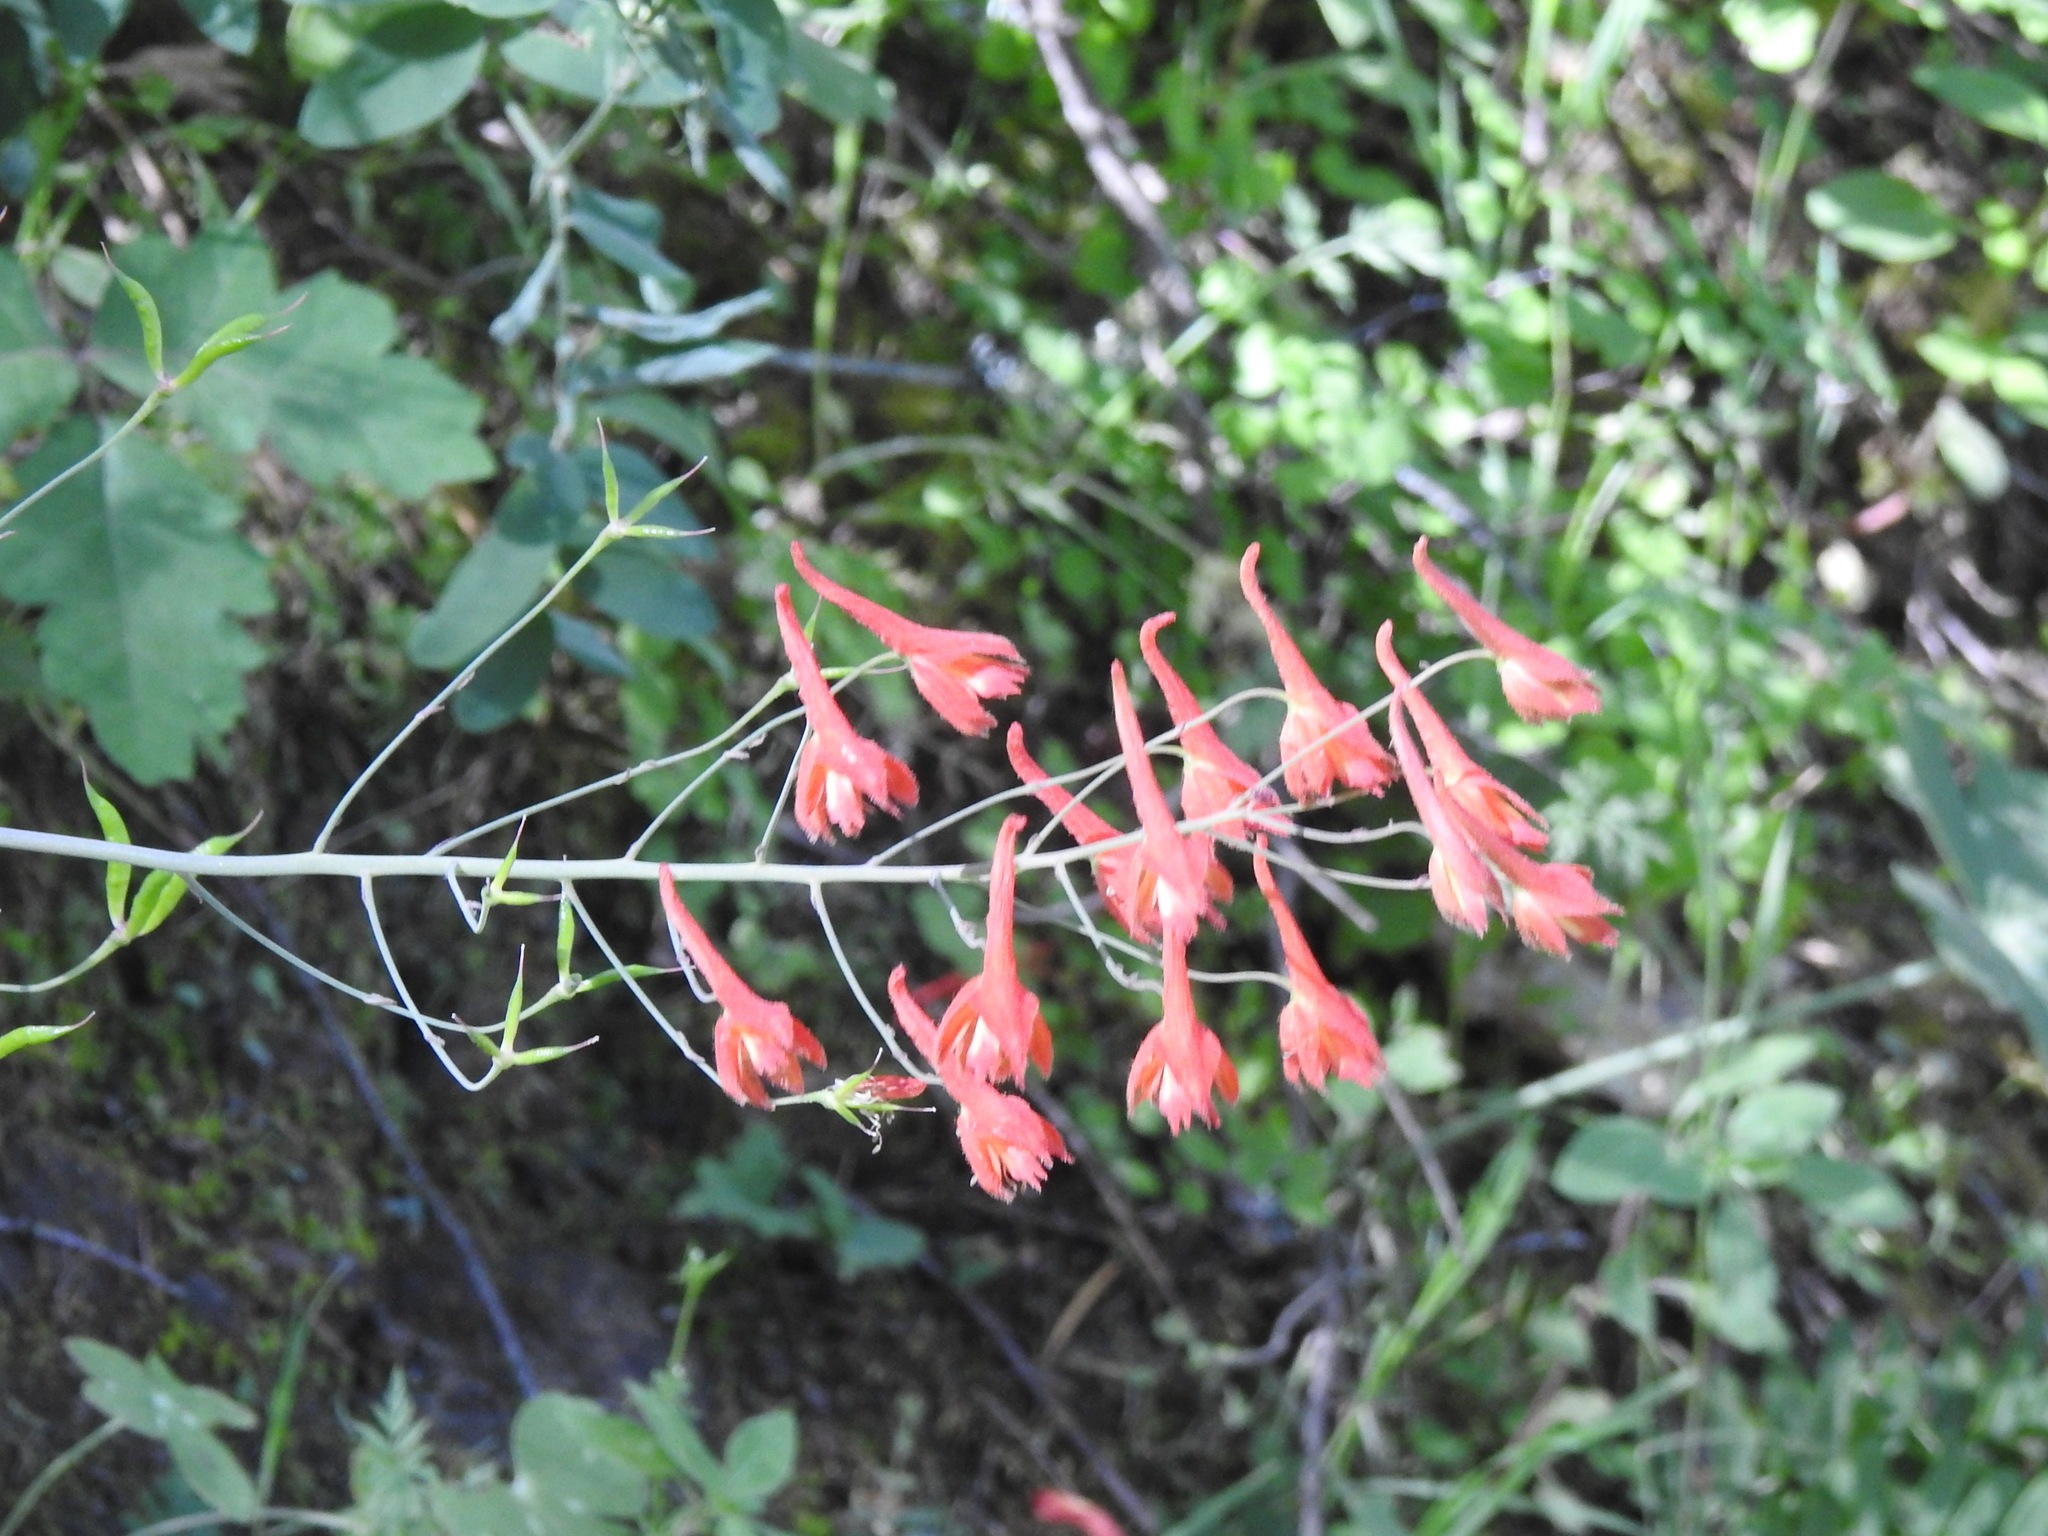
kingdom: Plantae
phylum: Tracheophyta
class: Magnoliopsida
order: Ranunculales
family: Ranunculaceae
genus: Delphinium
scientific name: Delphinium nudicaule
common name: Red larkspur
